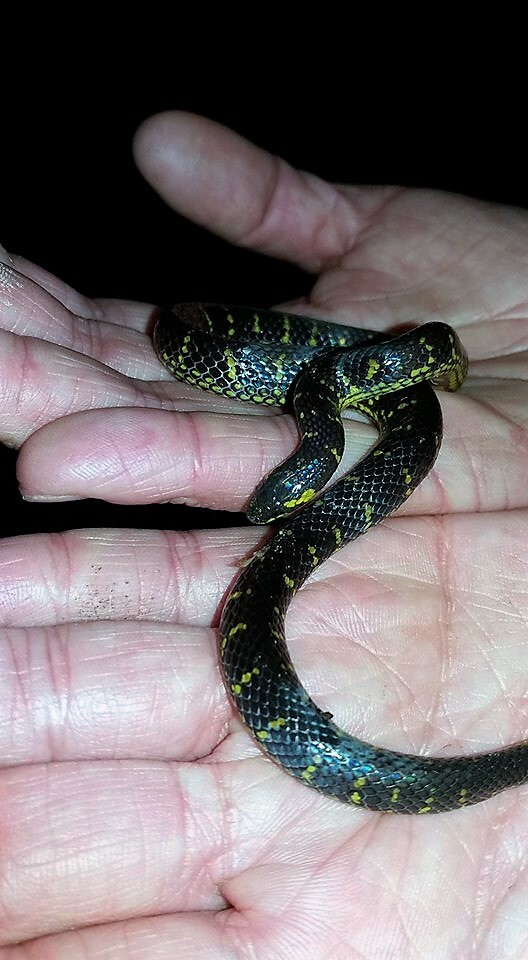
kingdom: Animalia
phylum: Chordata
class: Squamata
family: Colubridae
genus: Atractus
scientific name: Atractus crassicaudatus
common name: Thickhead ground snake
